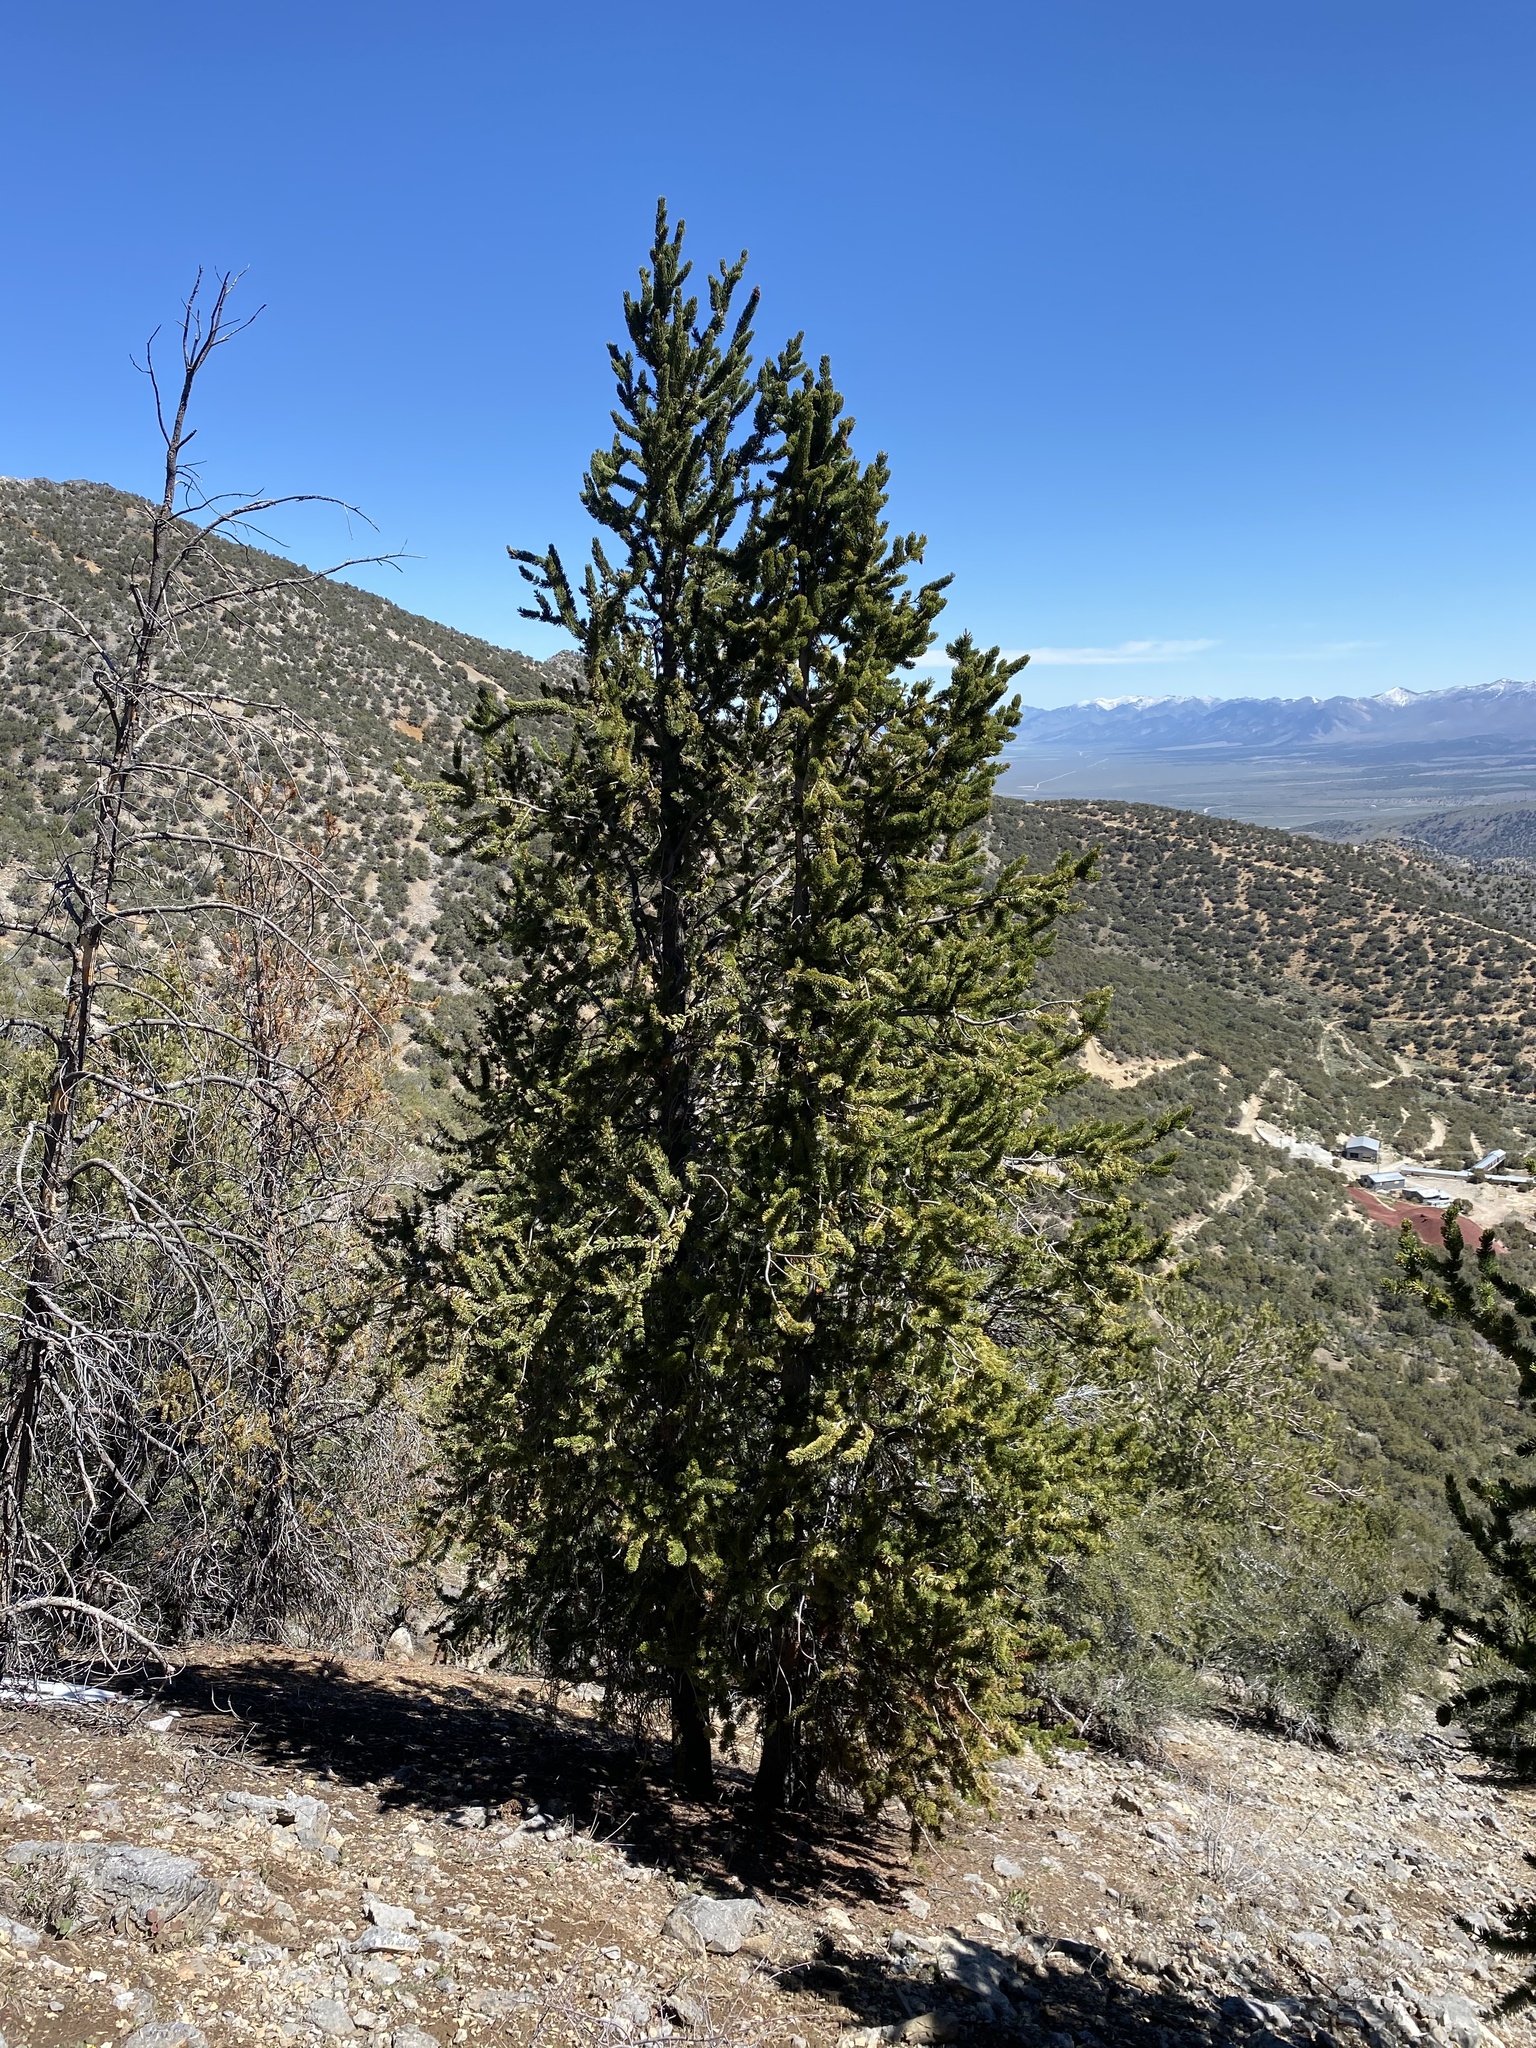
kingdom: Plantae
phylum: Tracheophyta
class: Pinopsida
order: Pinales
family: Pinaceae
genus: Pinus
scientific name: Pinus longaeva
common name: Intermountain bristlecone pine
